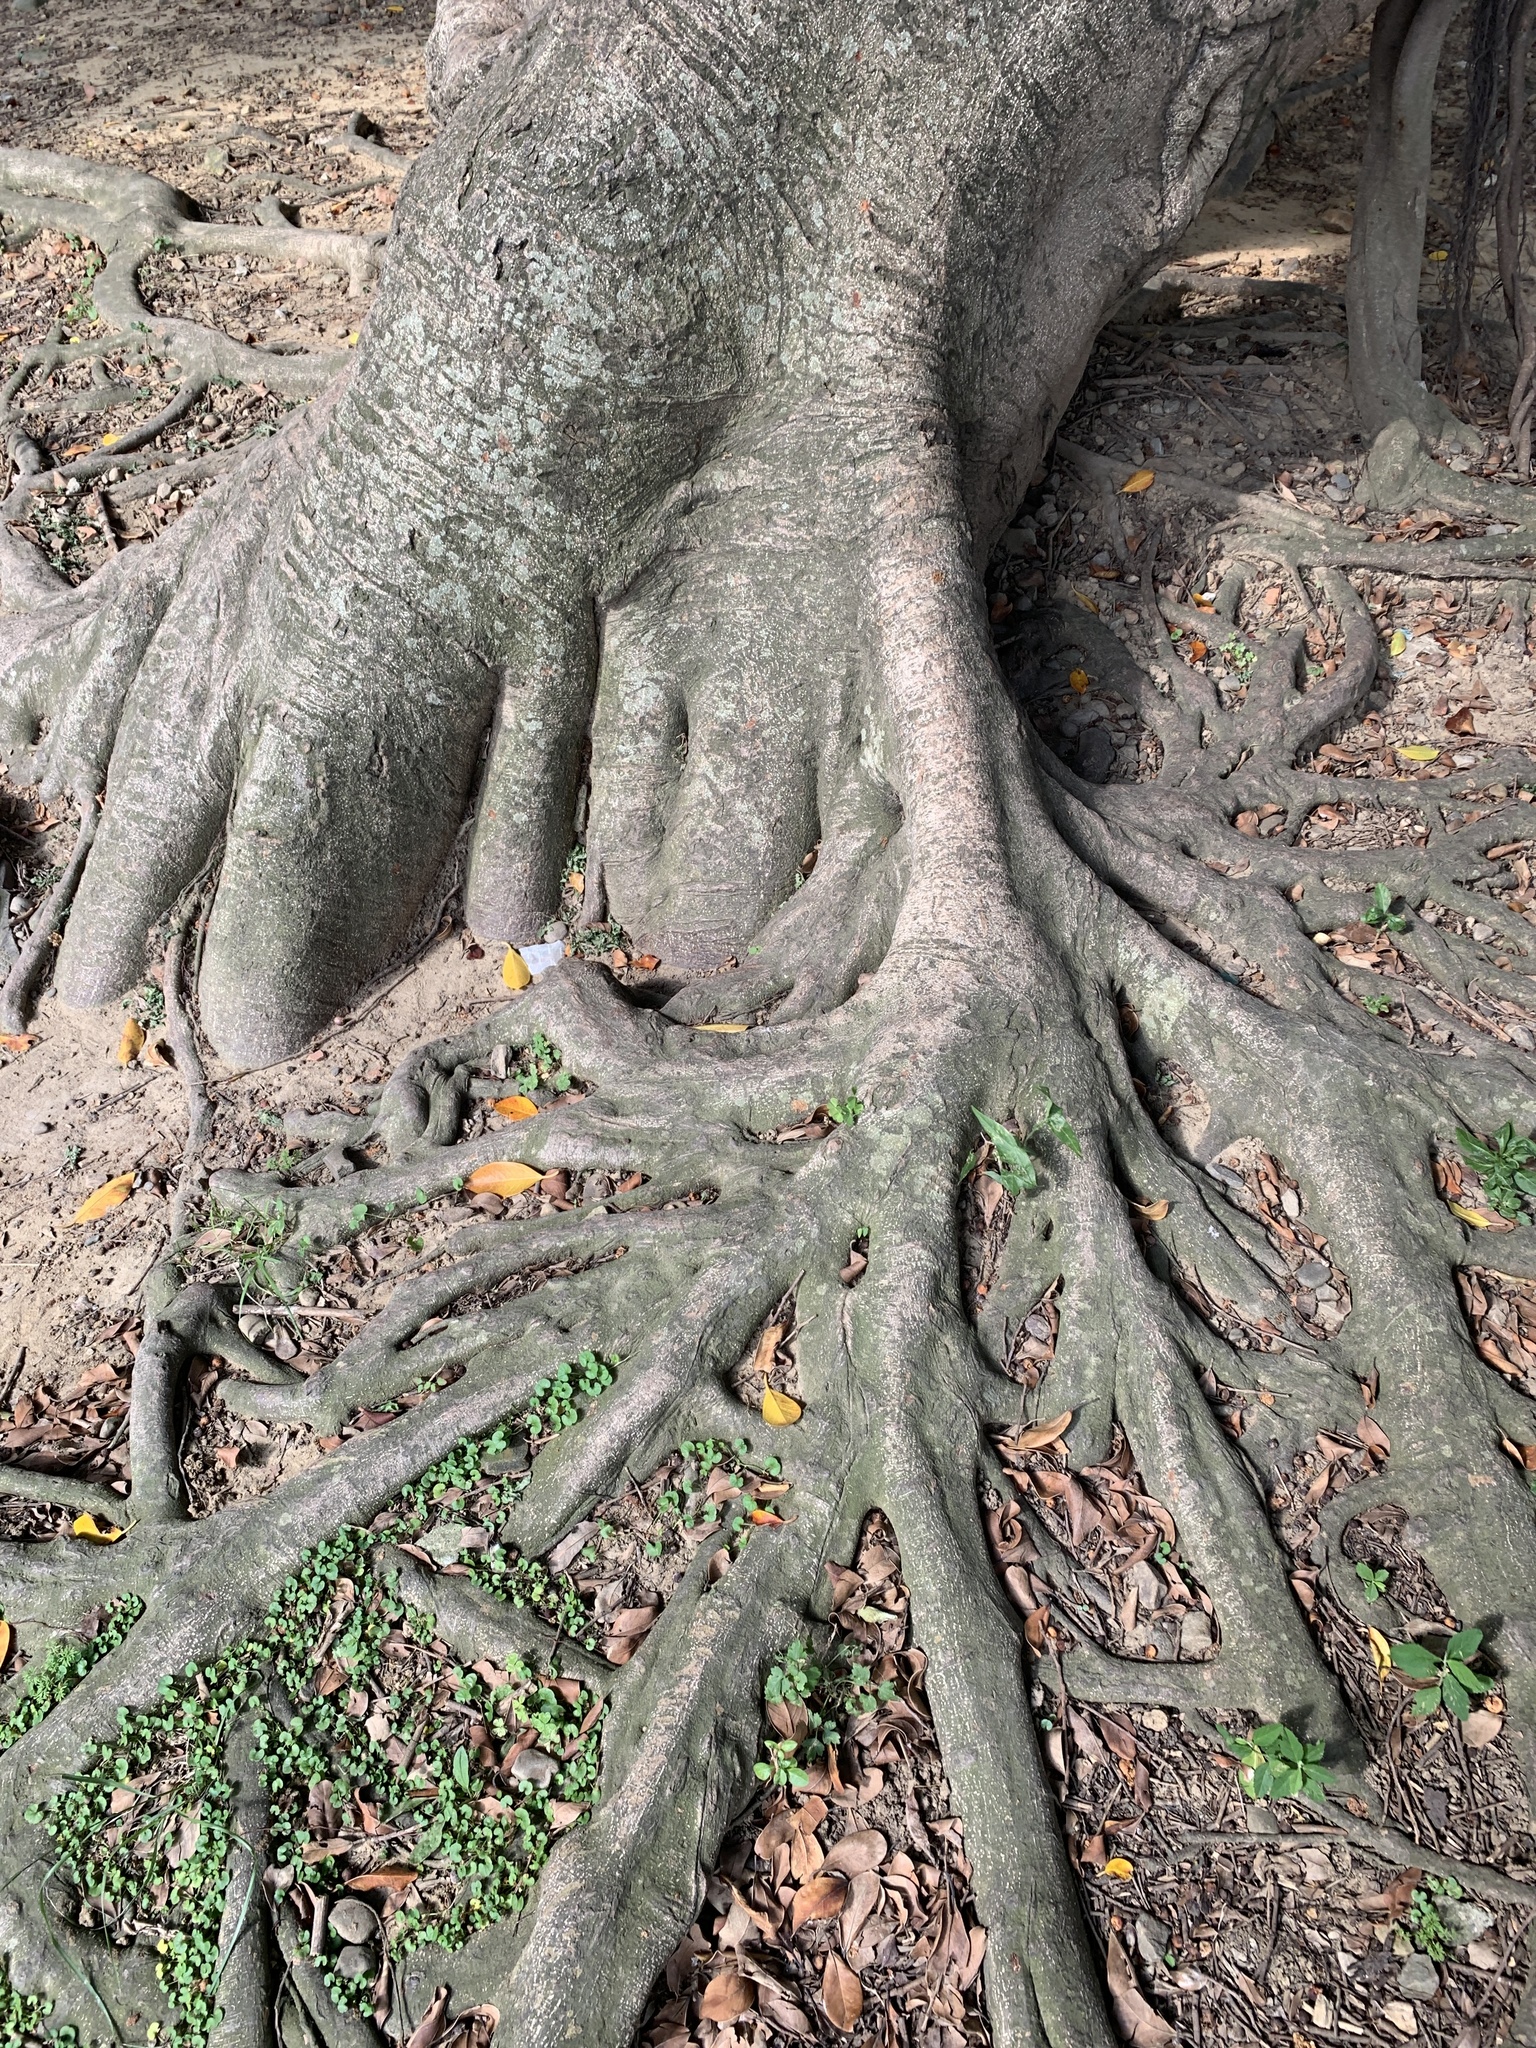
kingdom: Plantae
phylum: Tracheophyta
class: Magnoliopsida
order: Rosales
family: Moraceae
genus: Ficus
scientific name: Ficus microcarpa
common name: Chinese banyan
